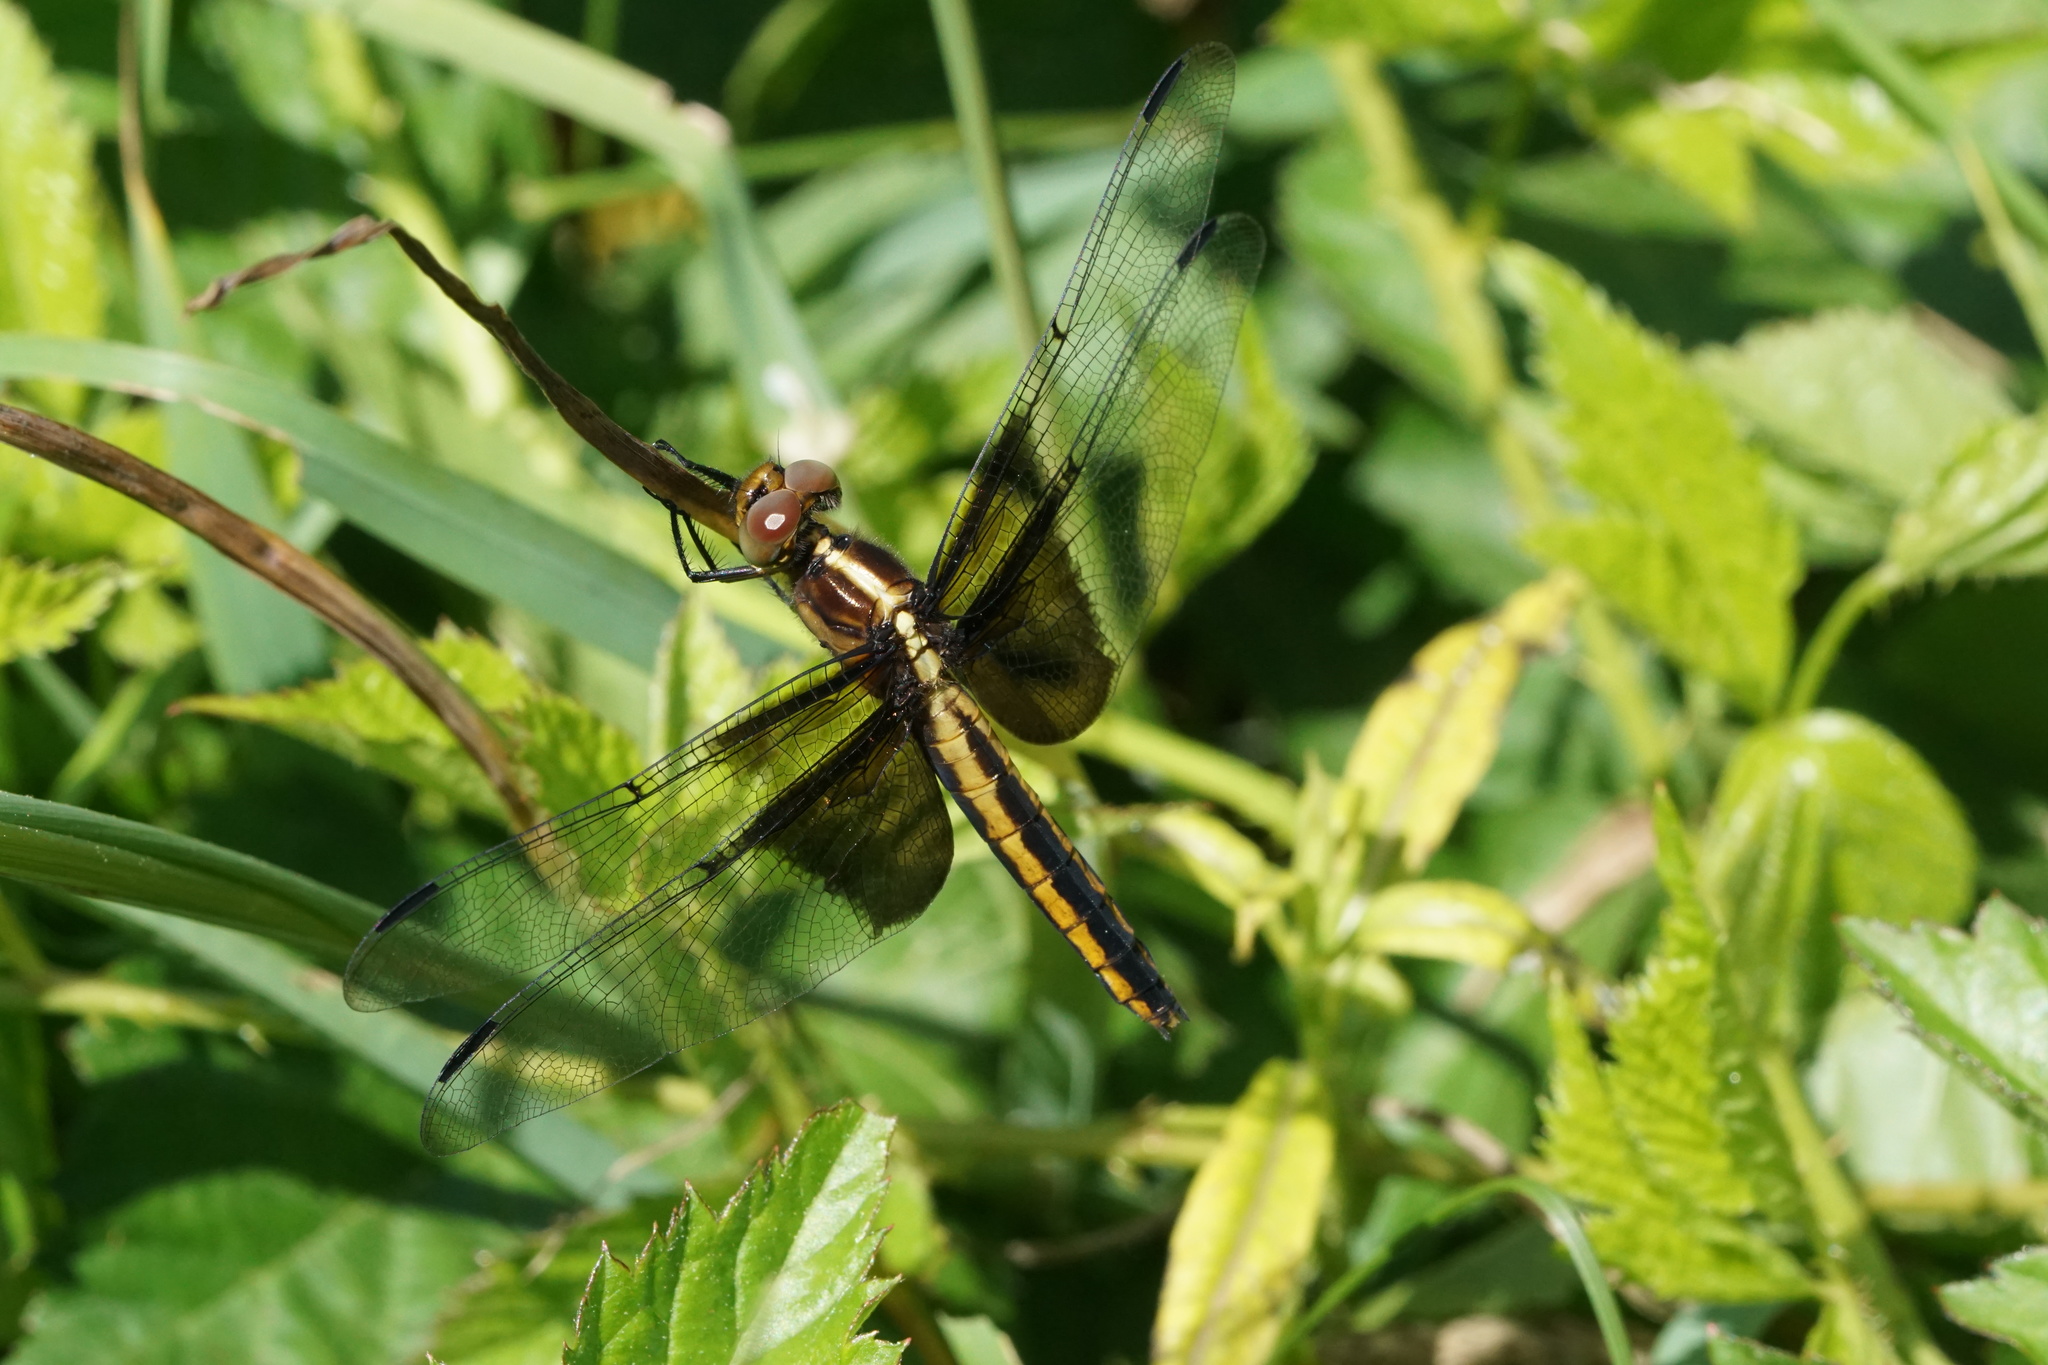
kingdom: Animalia
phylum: Arthropoda
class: Insecta
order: Odonata
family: Libellulidae
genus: Libellula
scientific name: Libellula luctuosa
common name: Widow skimmer
